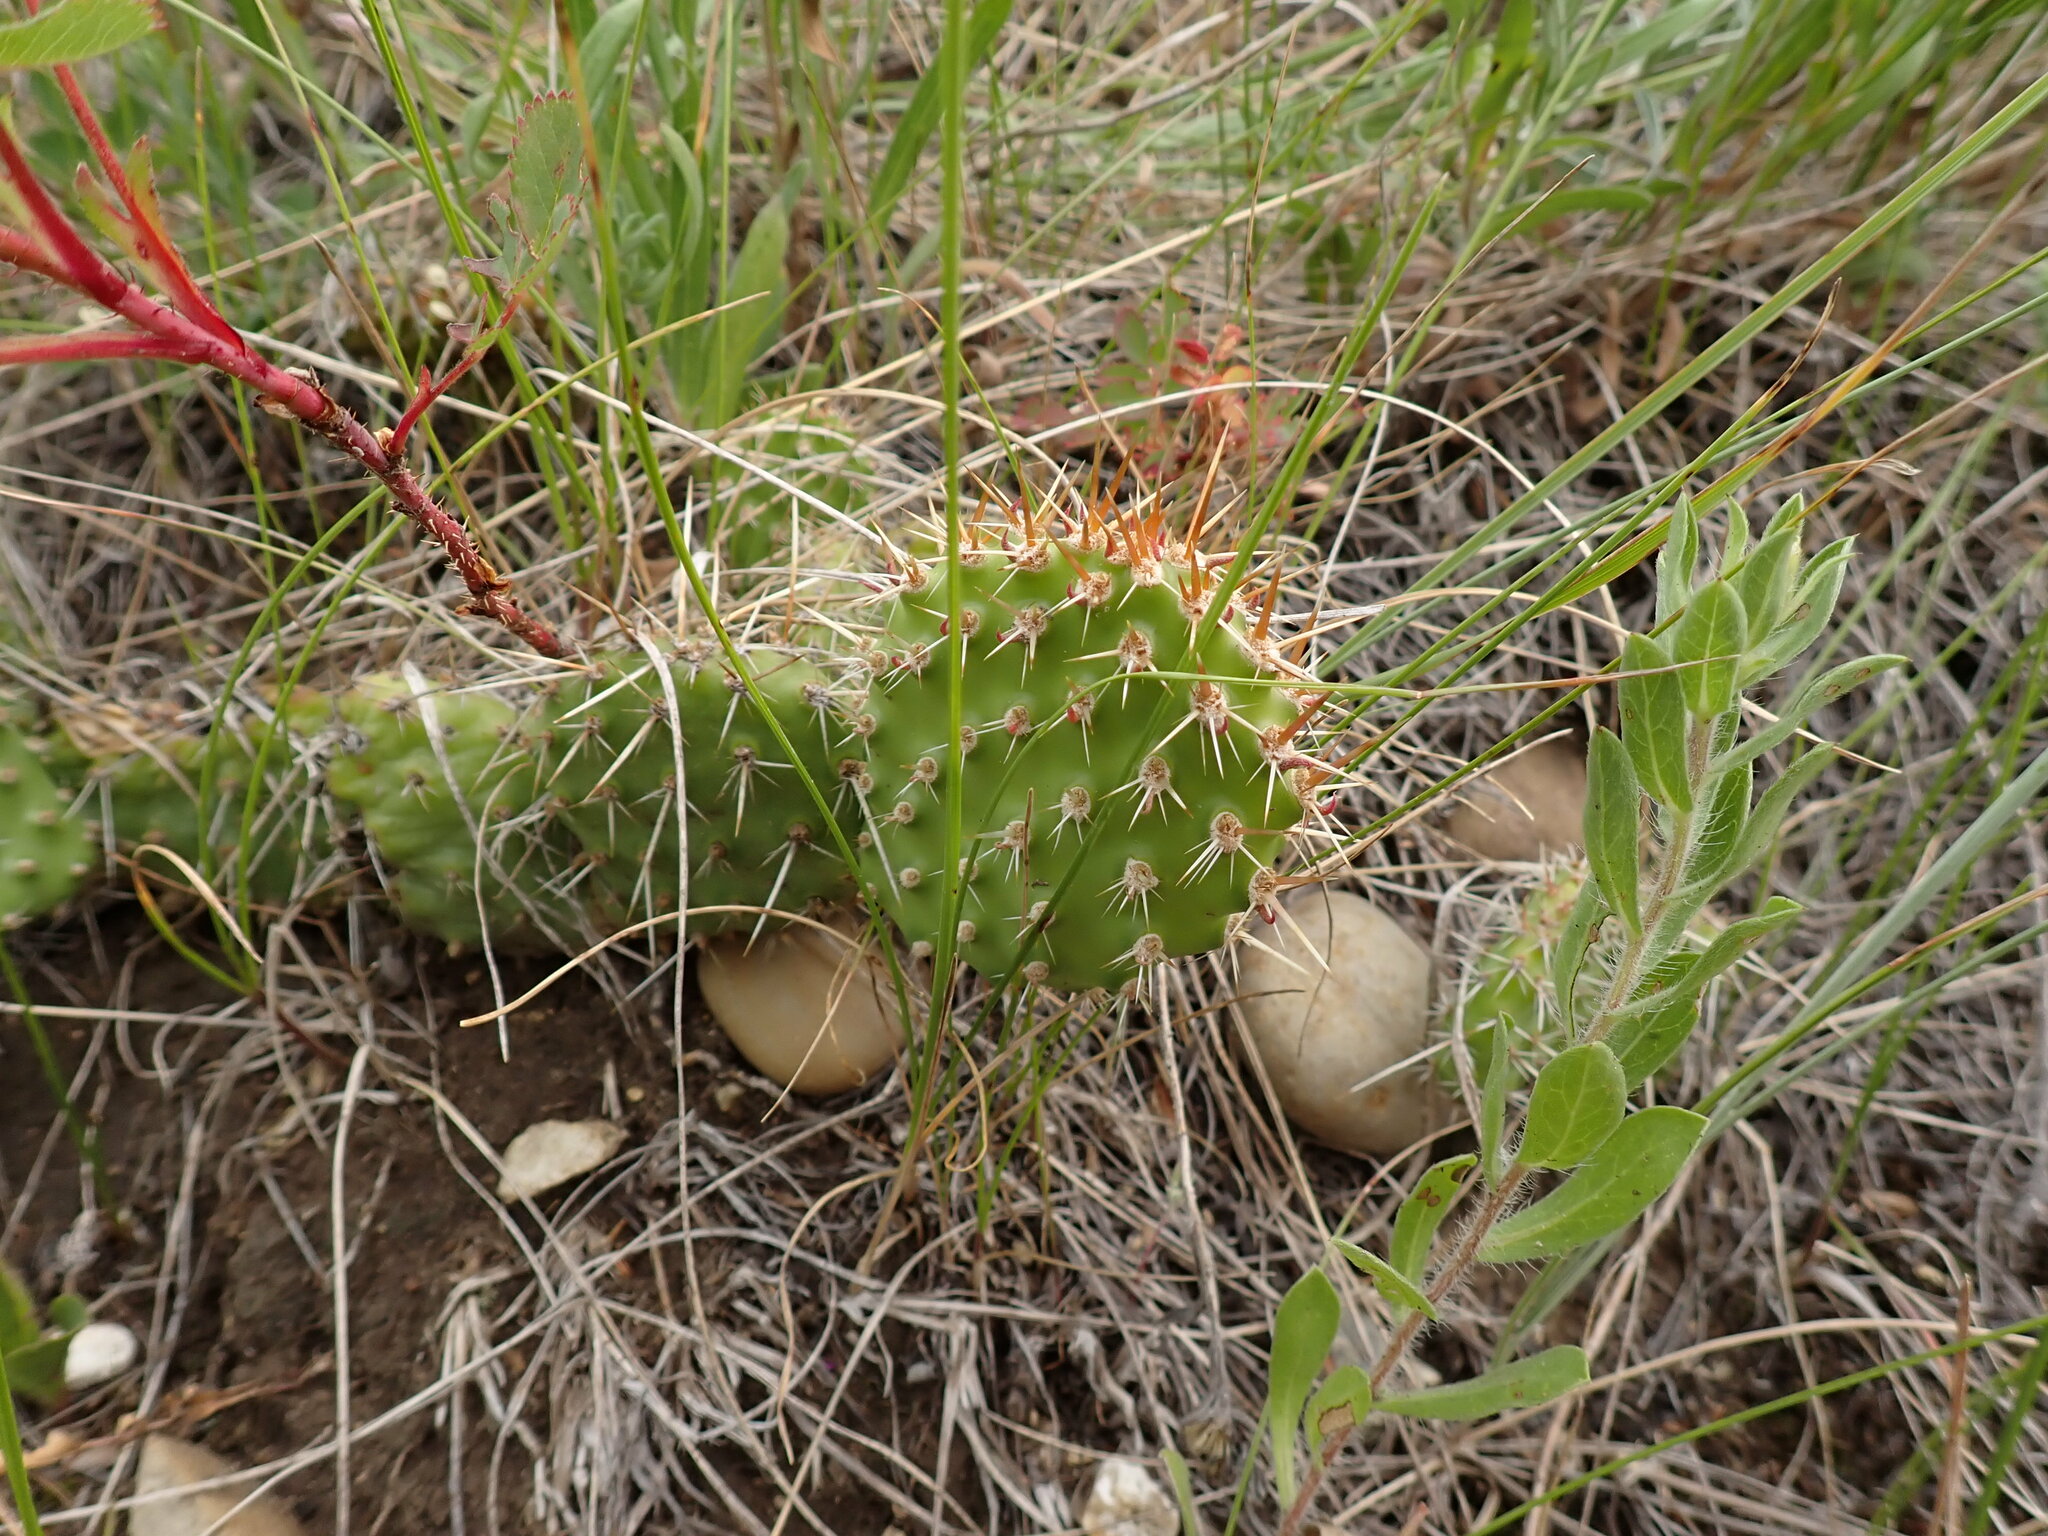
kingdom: Plantae
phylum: Tracheophyta
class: Magnoliopsida
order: Caryophyllales
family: Cactaceae
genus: Opuntia
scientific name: Opuntia polyacantha
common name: Plains prickly-pear
